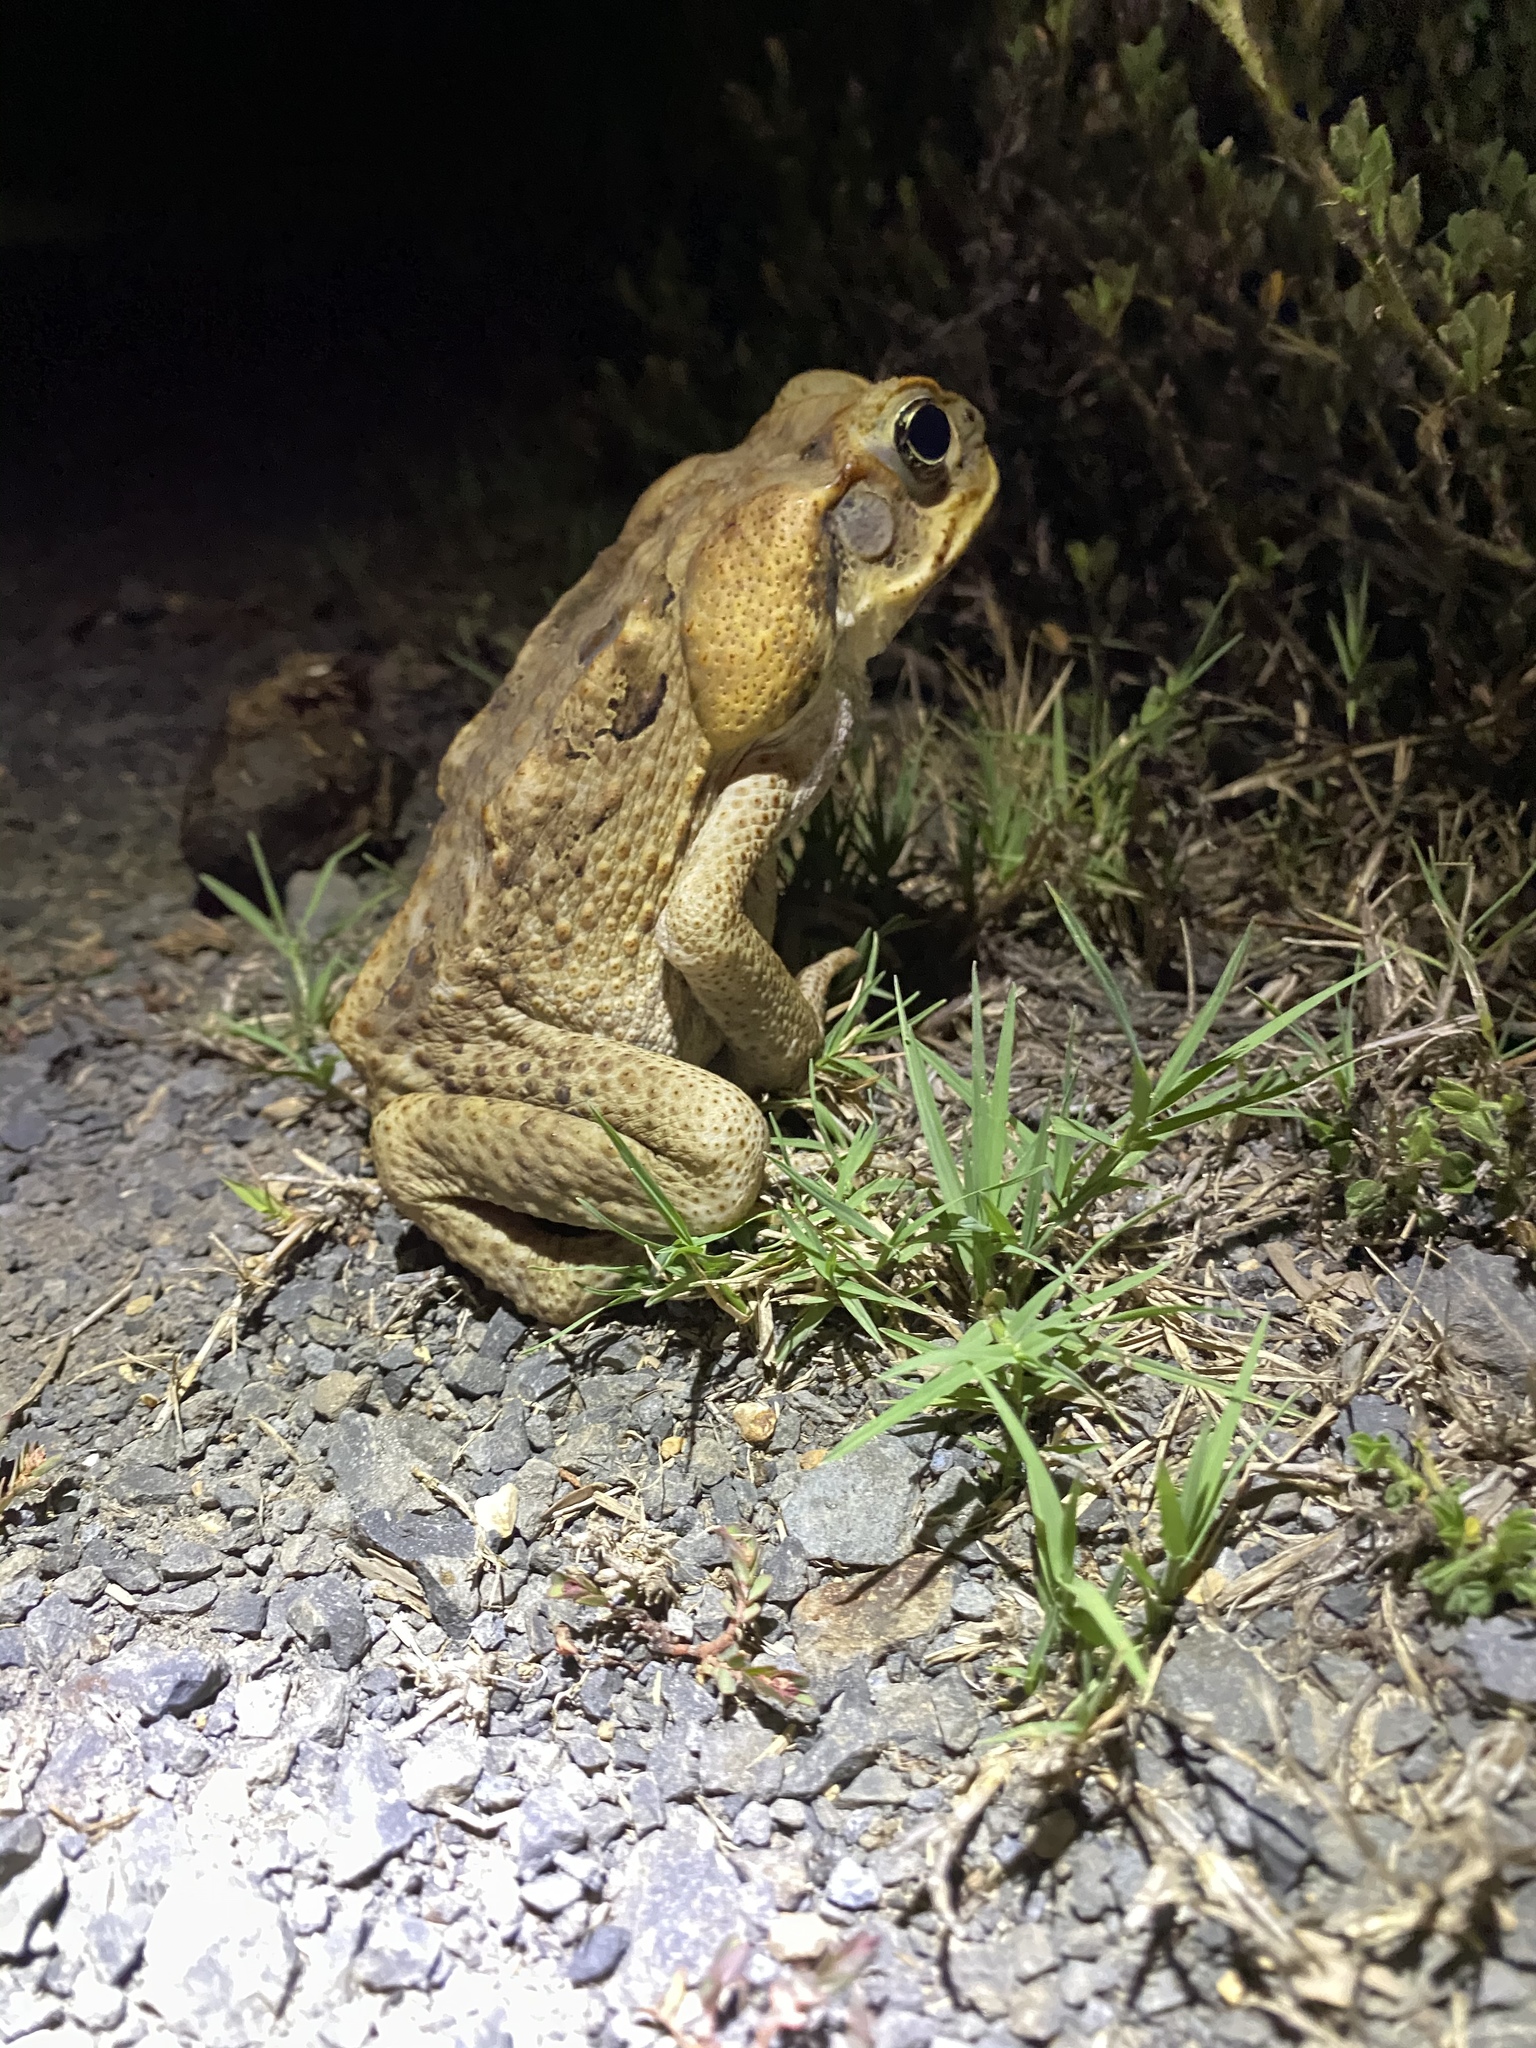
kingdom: Animalia
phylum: Chordata
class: Amphibia
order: Anura
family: Bufonidae
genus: Rhinella
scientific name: Rhinella marina
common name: Cane toad
